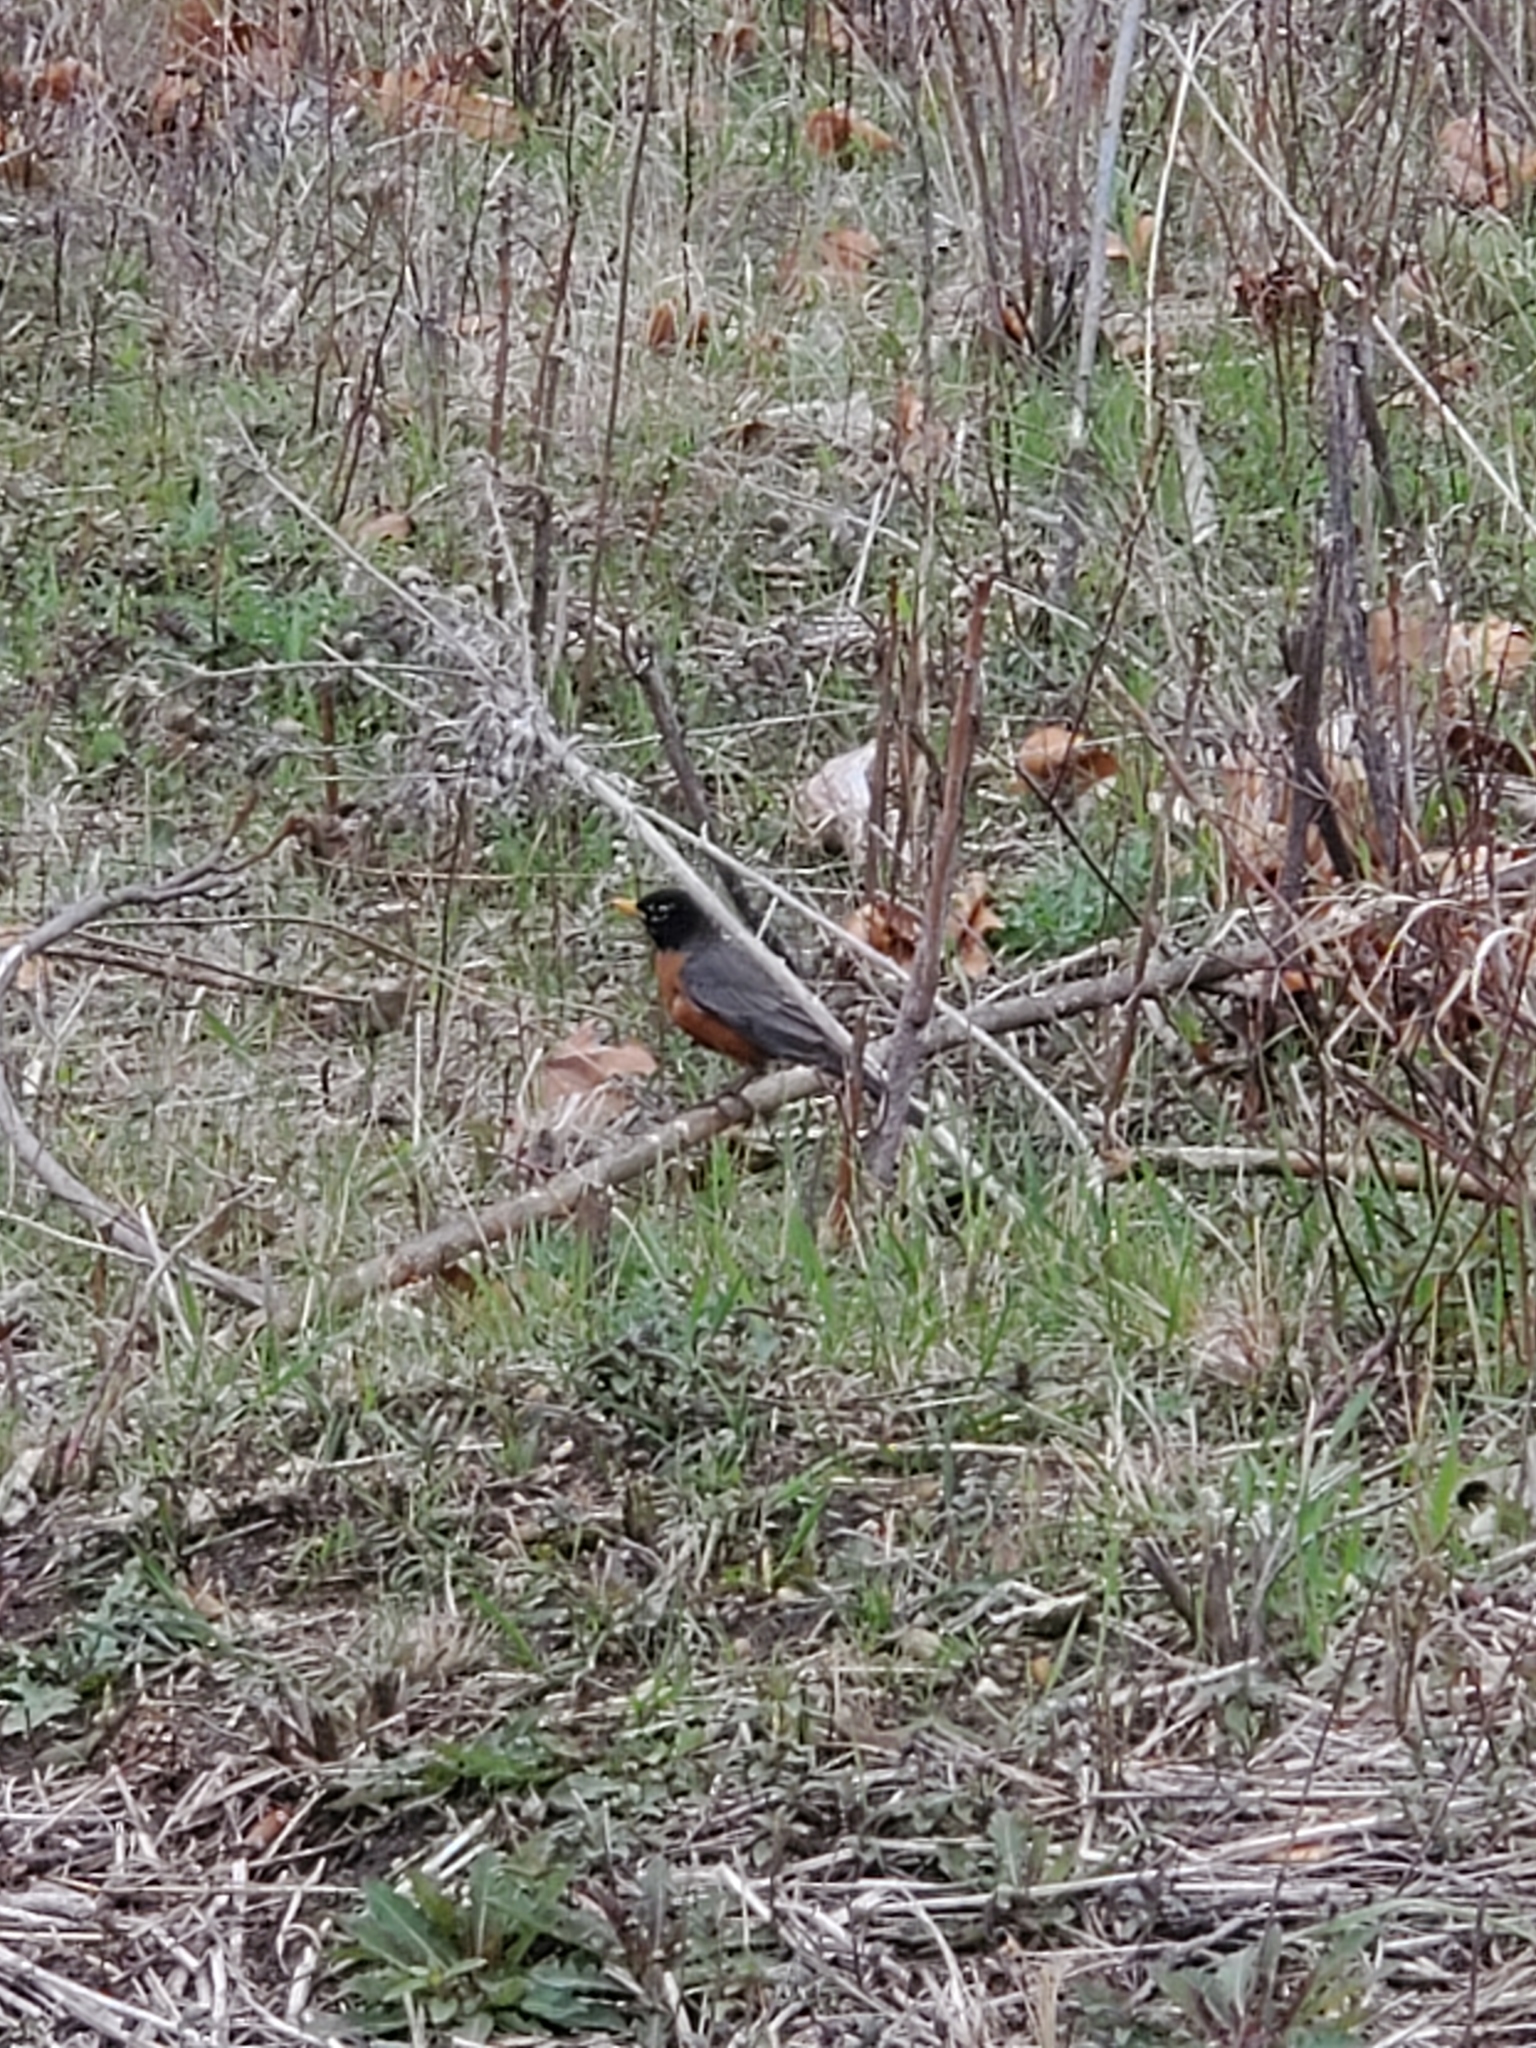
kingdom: Animalia
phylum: Chordata
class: Aves
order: Passeriformes
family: Turdidae
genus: Turdus
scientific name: Turdus migratorius
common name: American robin
